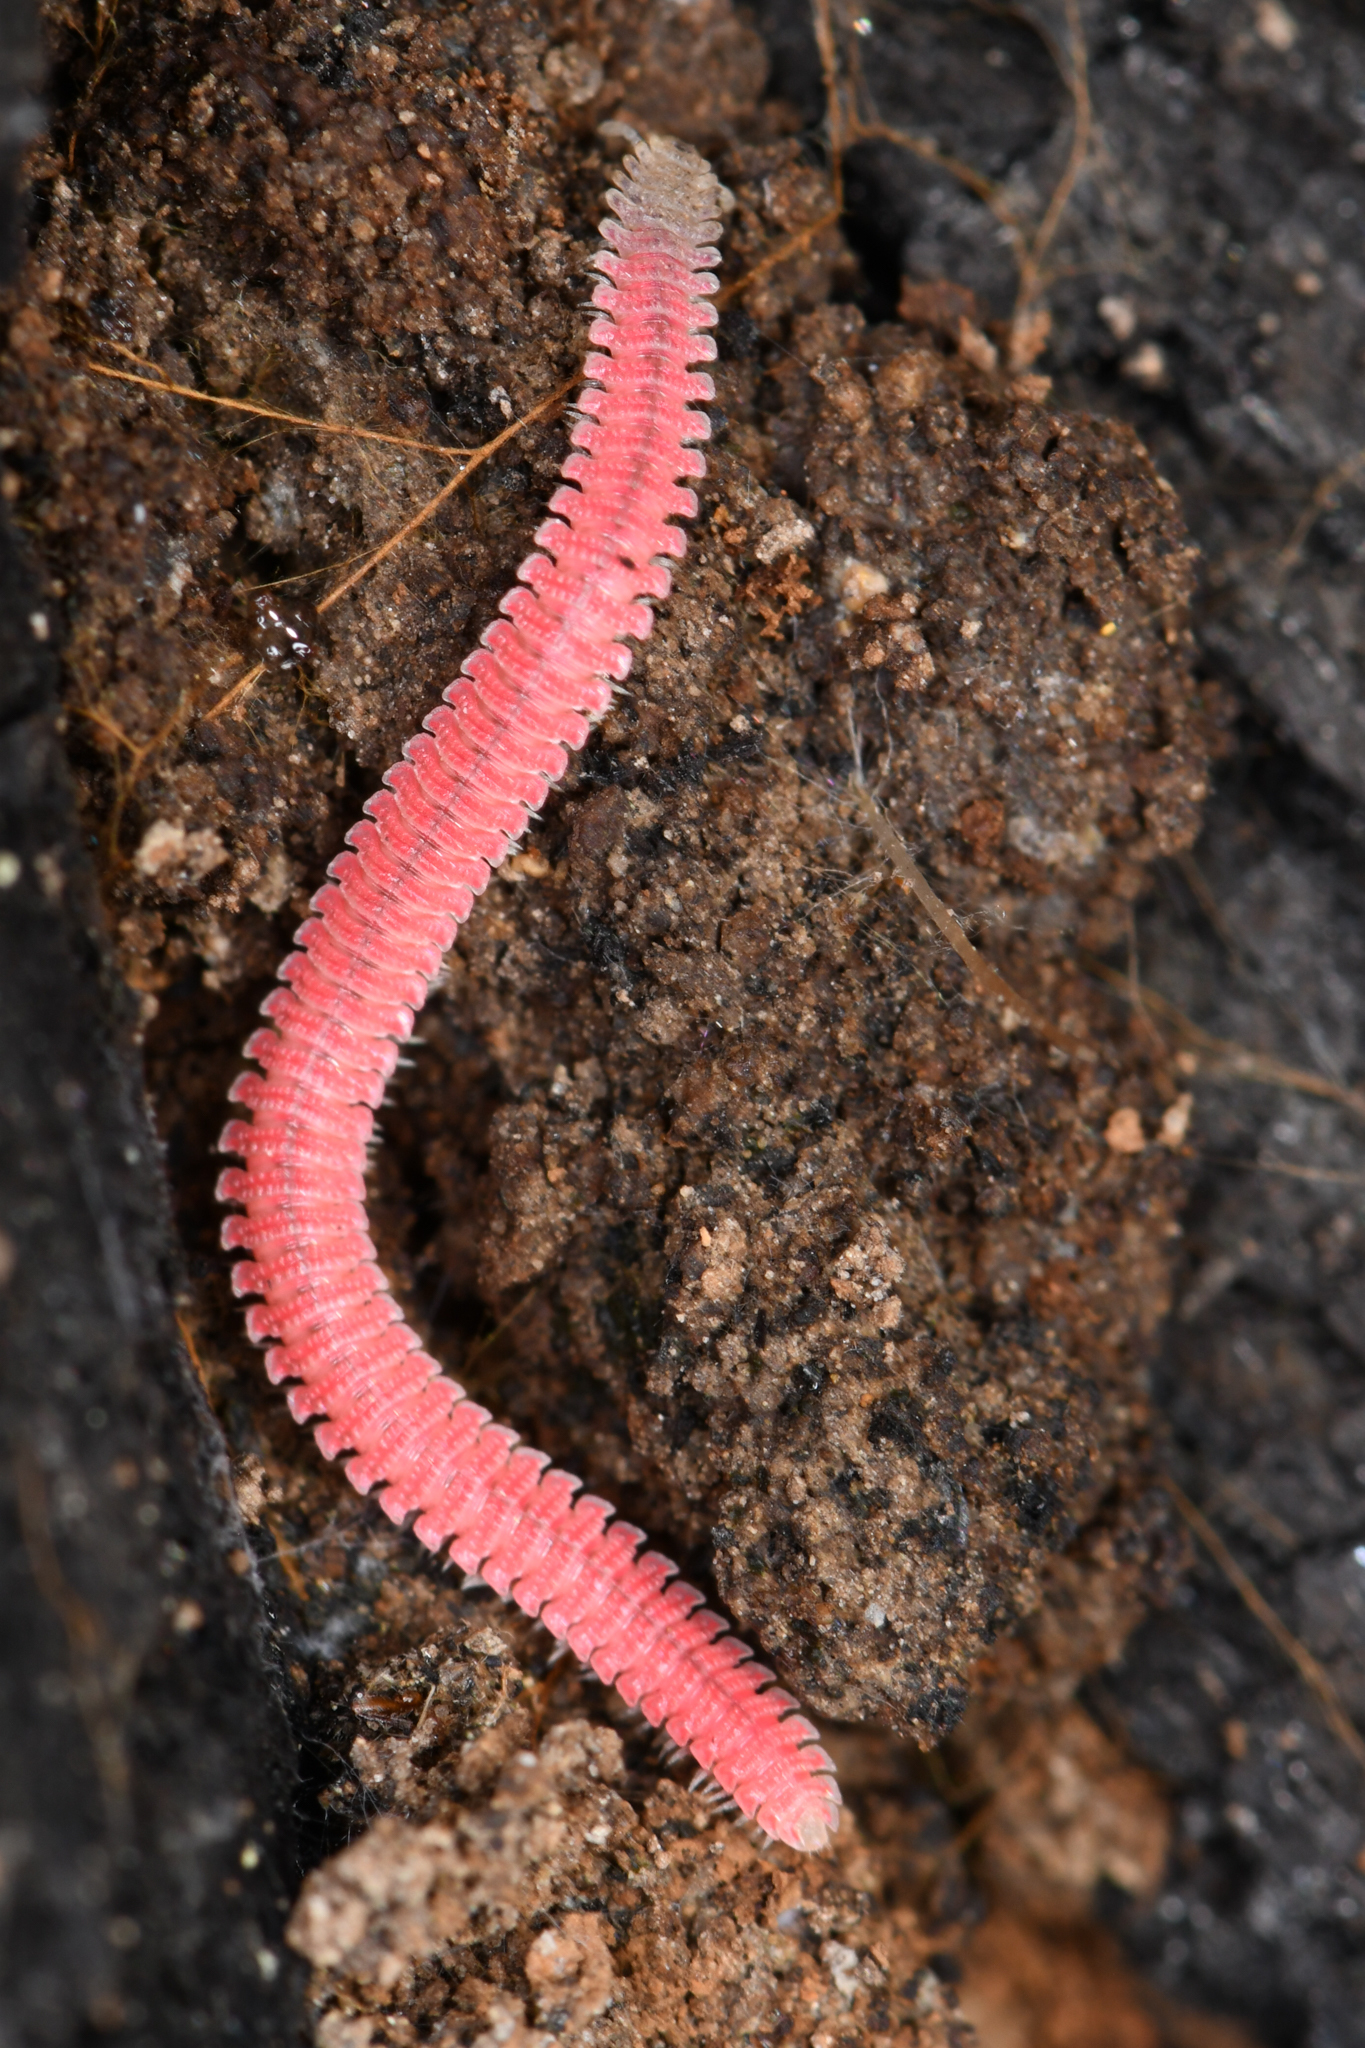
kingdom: Animalia
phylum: Arthropoda
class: Diplopoda
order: Platydesmida
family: Andrognathidae
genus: Gosodesmus
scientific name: Gosodesmus claremontus
